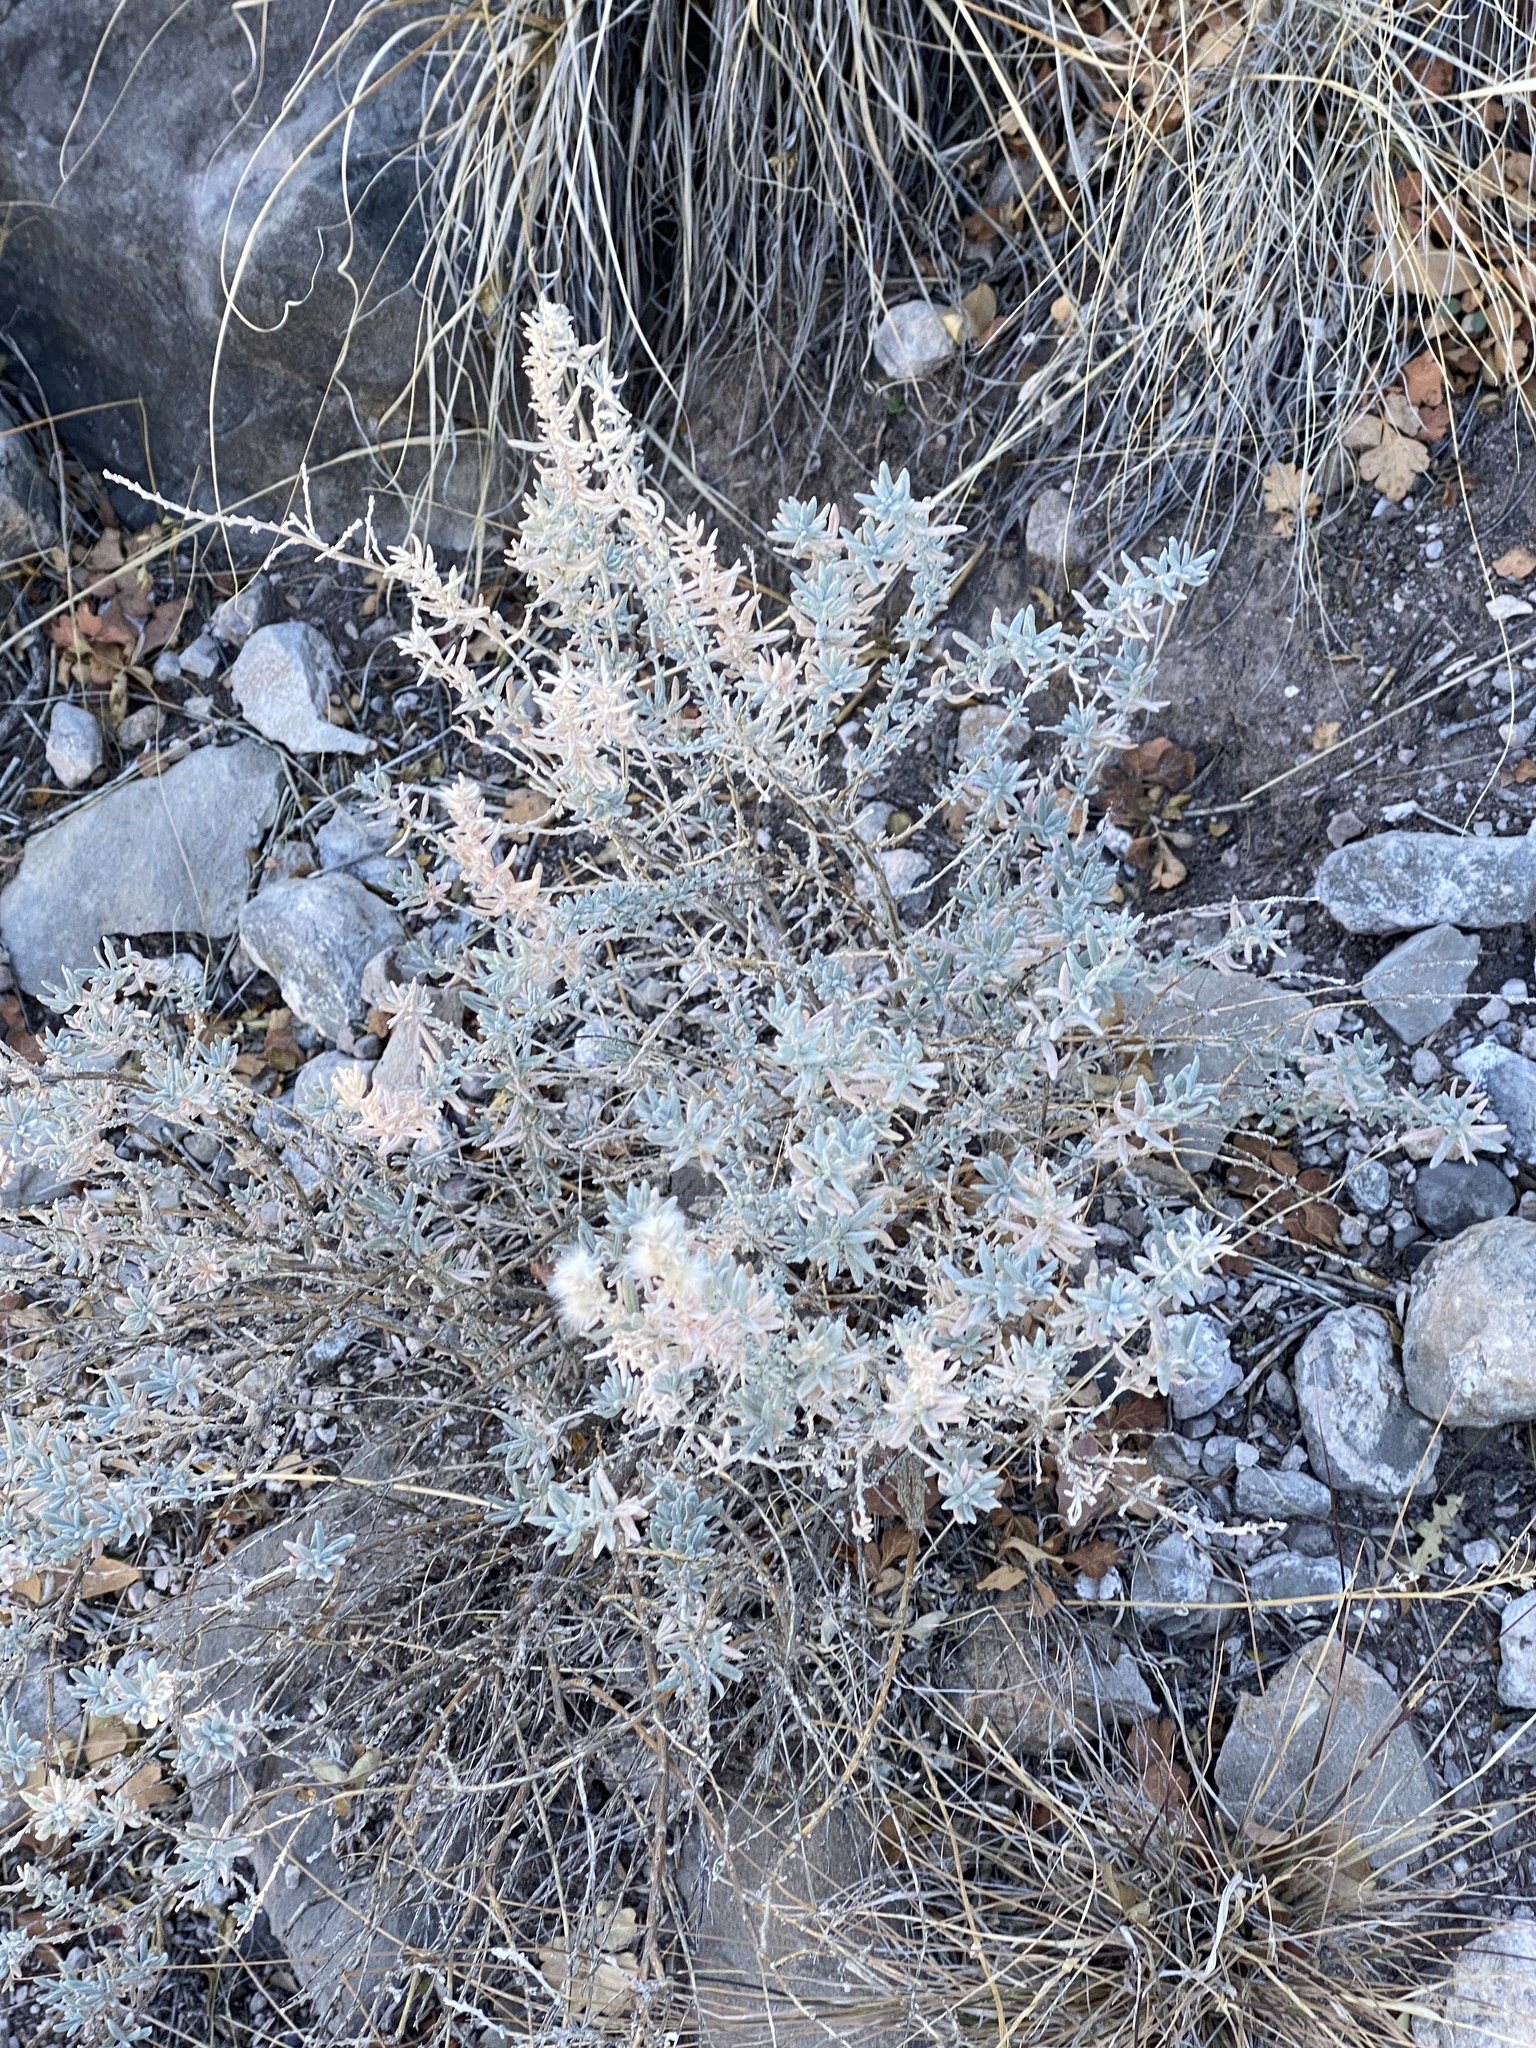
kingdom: Plantae
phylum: Tracheophyta
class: Magnoliopsida
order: Caryophyllales
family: Amaranthaceae
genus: Krascheninnikovia
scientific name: Krascheninnikovia lanata
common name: Winterfat
